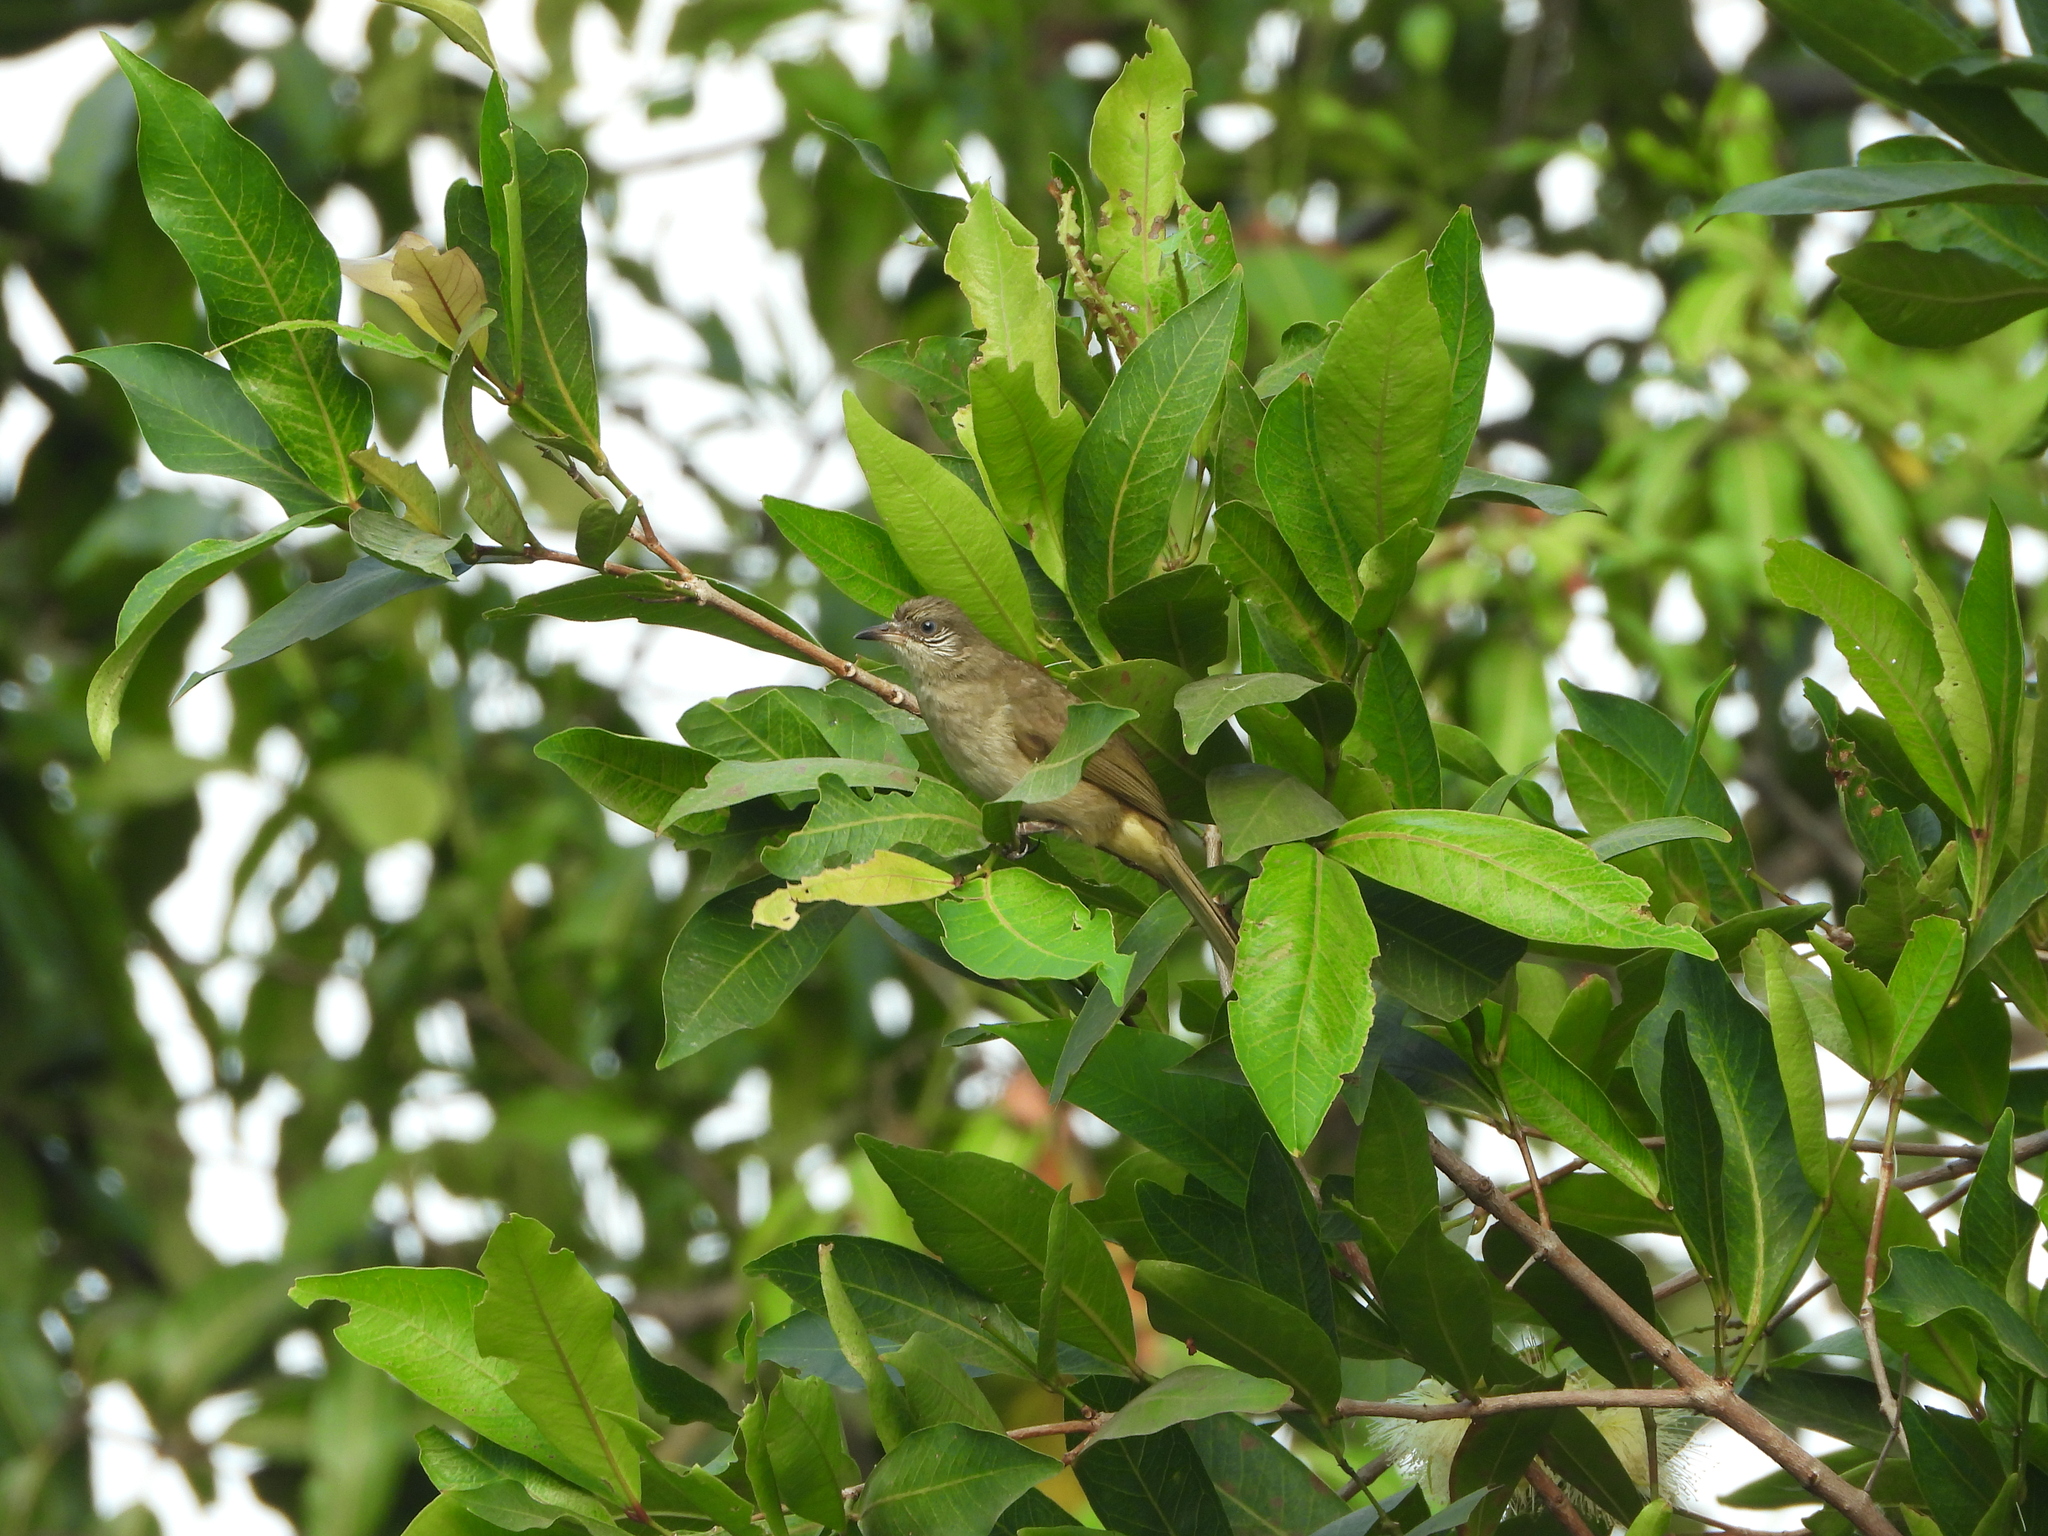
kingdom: Animalia
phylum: Chordata
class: Aves
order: Passeriformes
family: Pycnonotidae
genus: Pycnonotus
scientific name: Pycnonotus blanfordi
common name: Streak-eared bulbul
